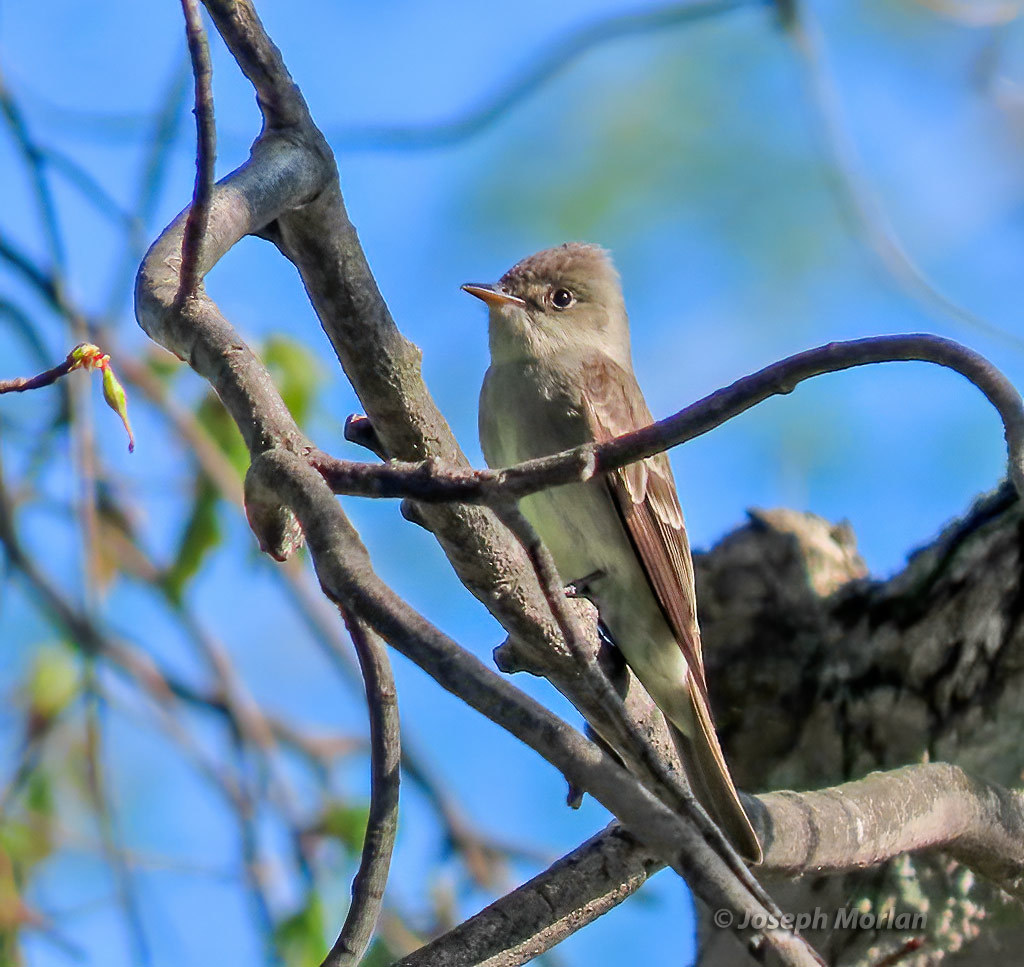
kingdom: Animalia
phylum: Chordata
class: Aves
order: Passeriformes
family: Tyrannidae
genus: Contopus
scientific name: Contopus virens
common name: Eastern wood-pewee
